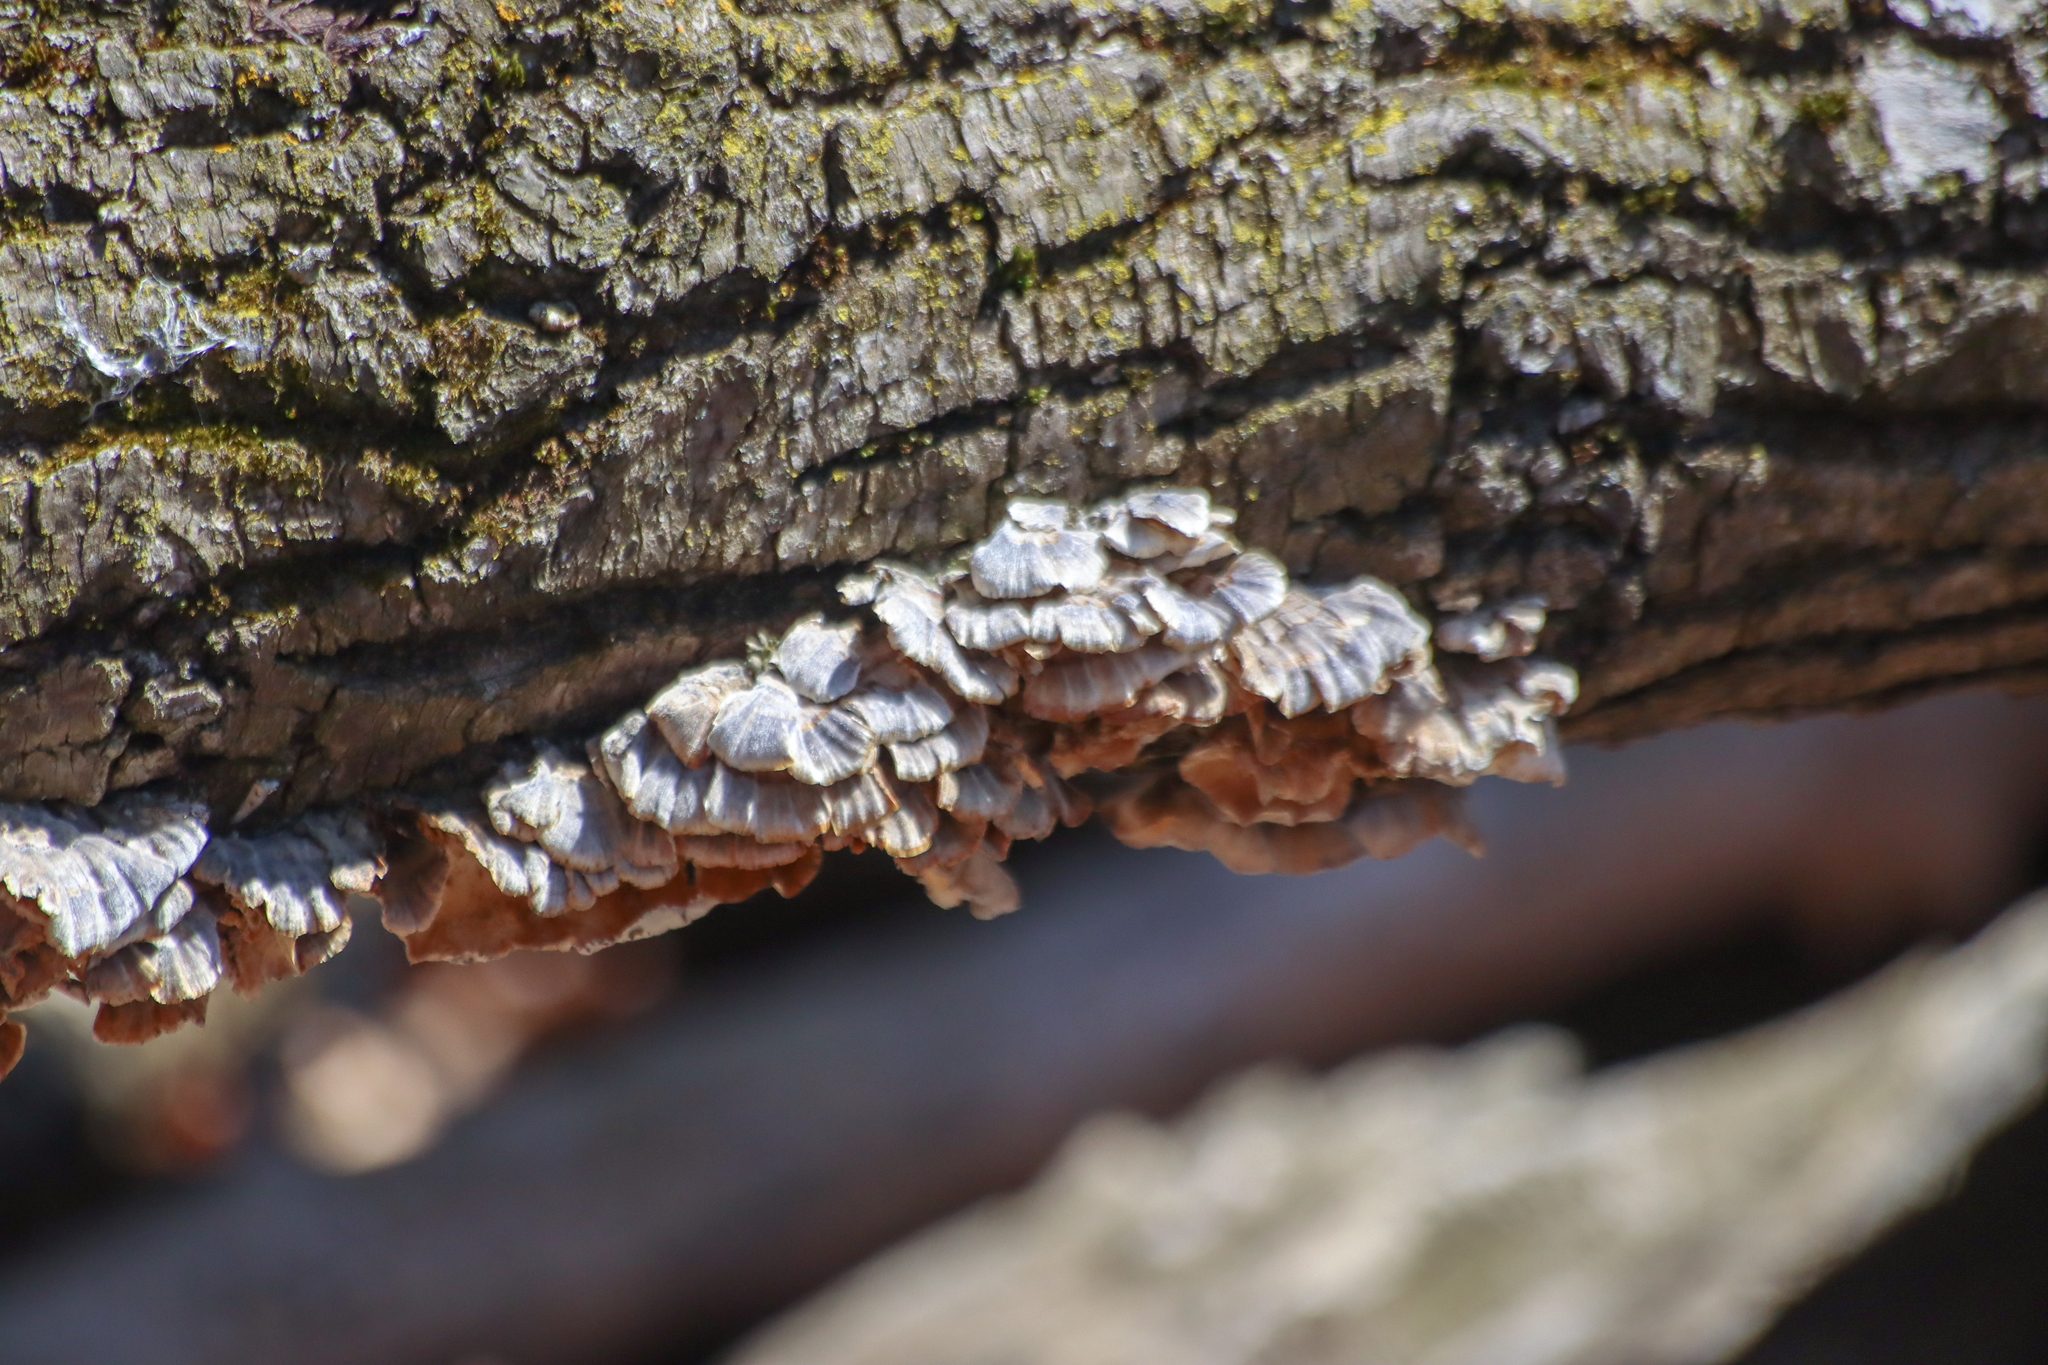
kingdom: Fungi
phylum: Basidiomycota
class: Agaricomycetes
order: Polyporales
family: Polyporaceae
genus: Trametes
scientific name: Trametes versicolor
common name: Turkeytail
